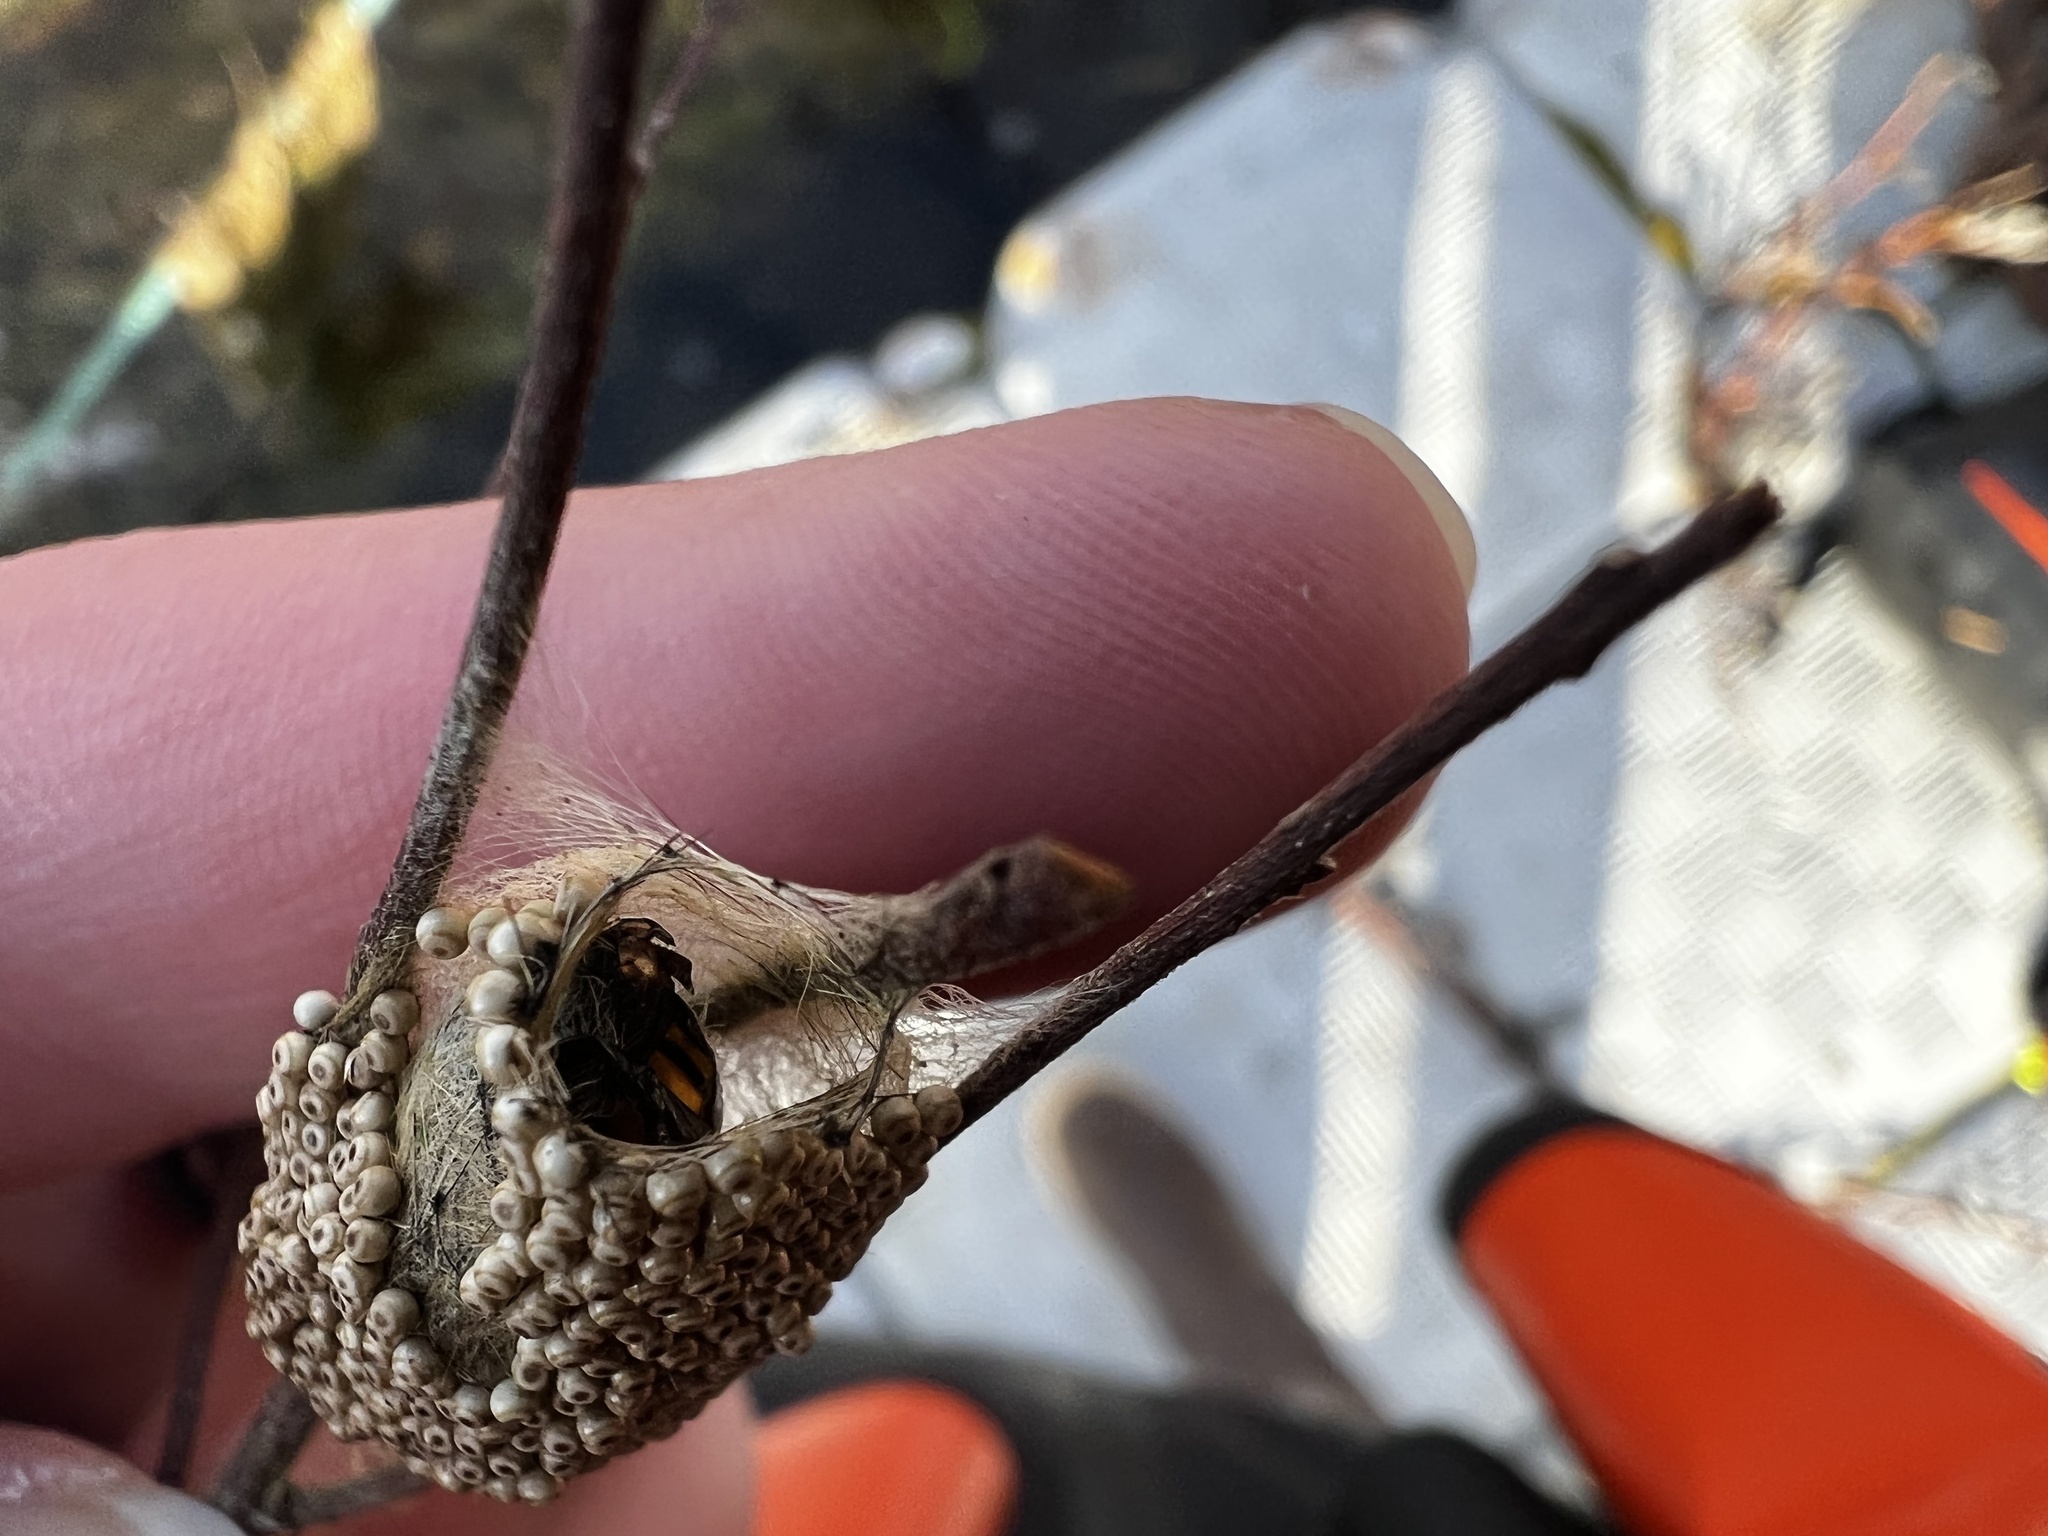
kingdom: Animalia
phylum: Arthropoda
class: Insecta
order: Lepidoptera
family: Erebidae
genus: Orgyia
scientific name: Orgyia antiqua
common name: Vapourer
